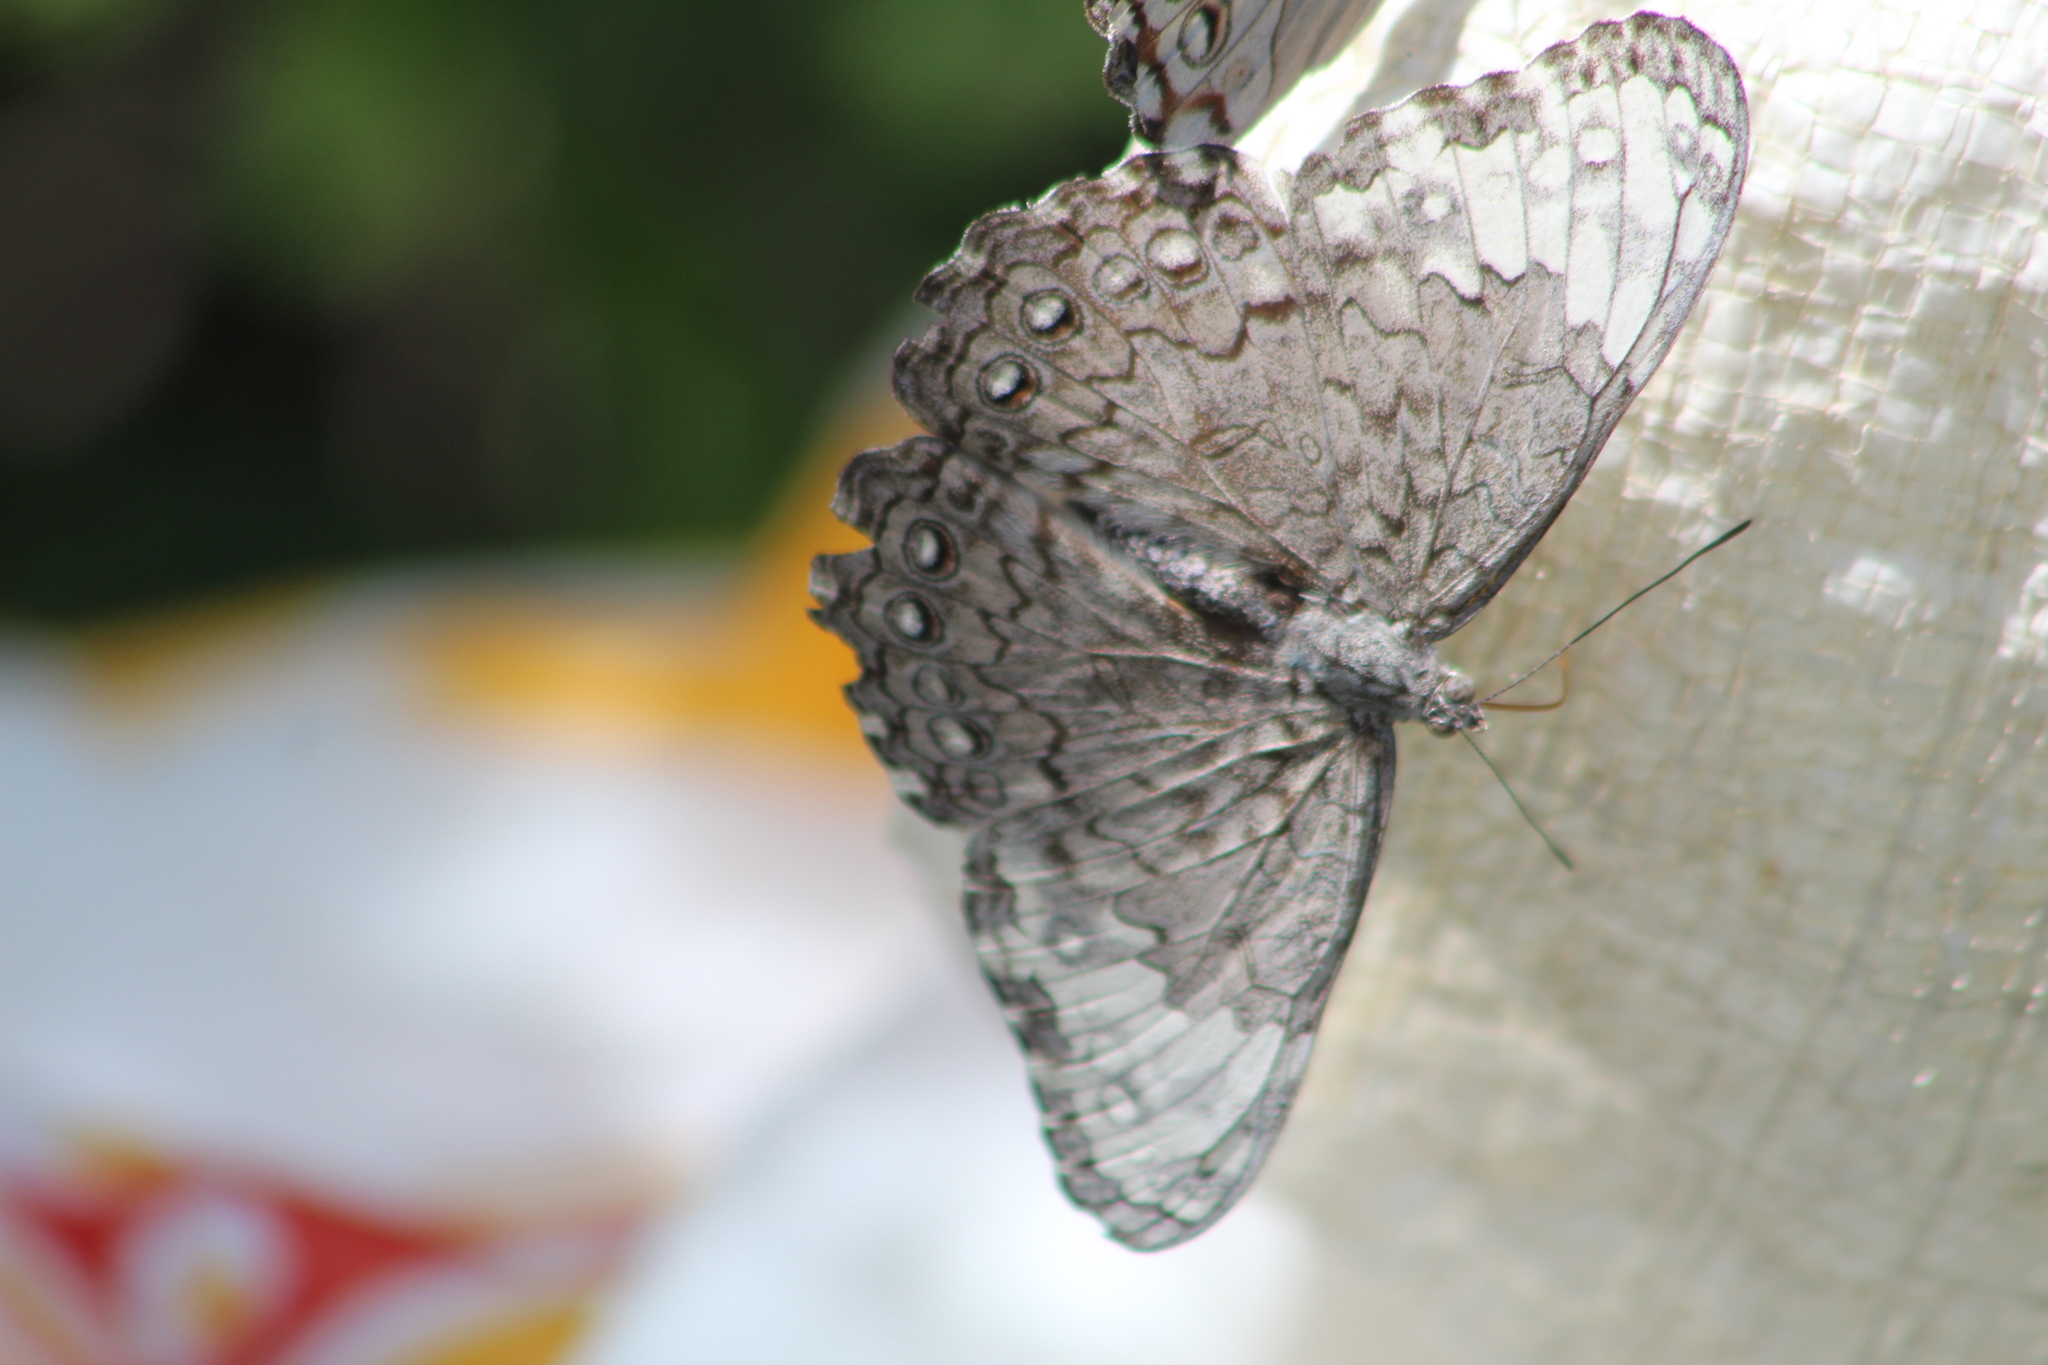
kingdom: Animalia
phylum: Arthropoda
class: Insecta
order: Lepidoptera
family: Nymphalidae
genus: Hamadryas
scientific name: Hamadryas glauconome
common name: Glaucous cracker
